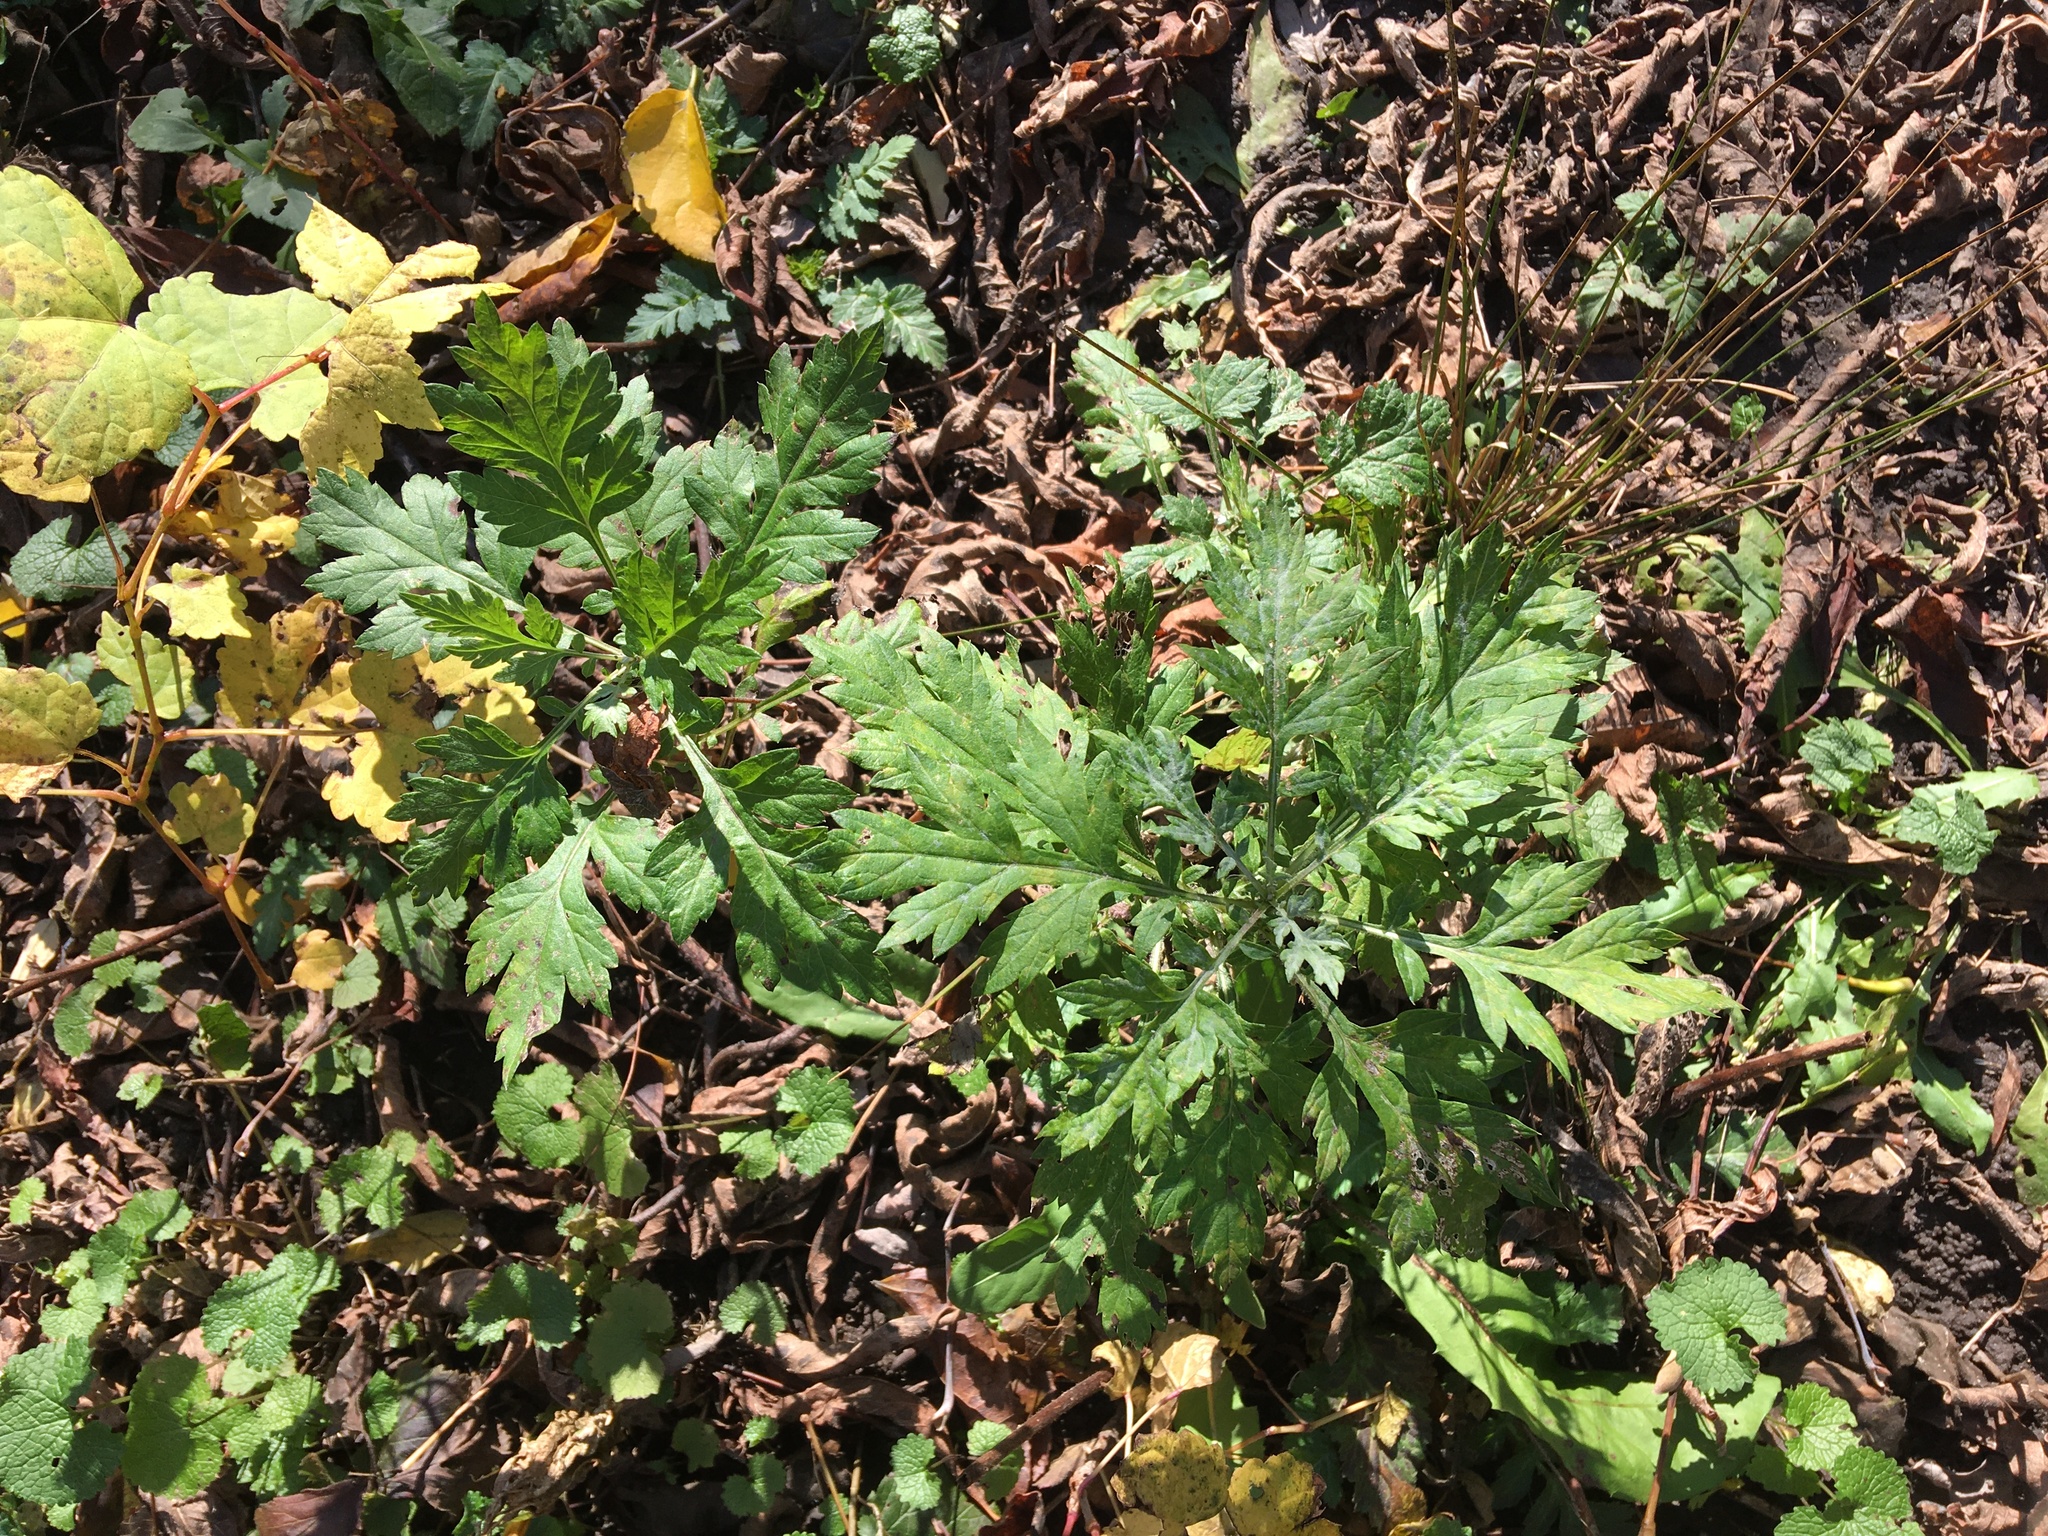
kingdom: Plantae
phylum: Tracheophyta
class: Magnoliopsida
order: Asterales
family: Asteraceae
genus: Artemisia
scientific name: Artemisia vulgaris
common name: Mugwort
